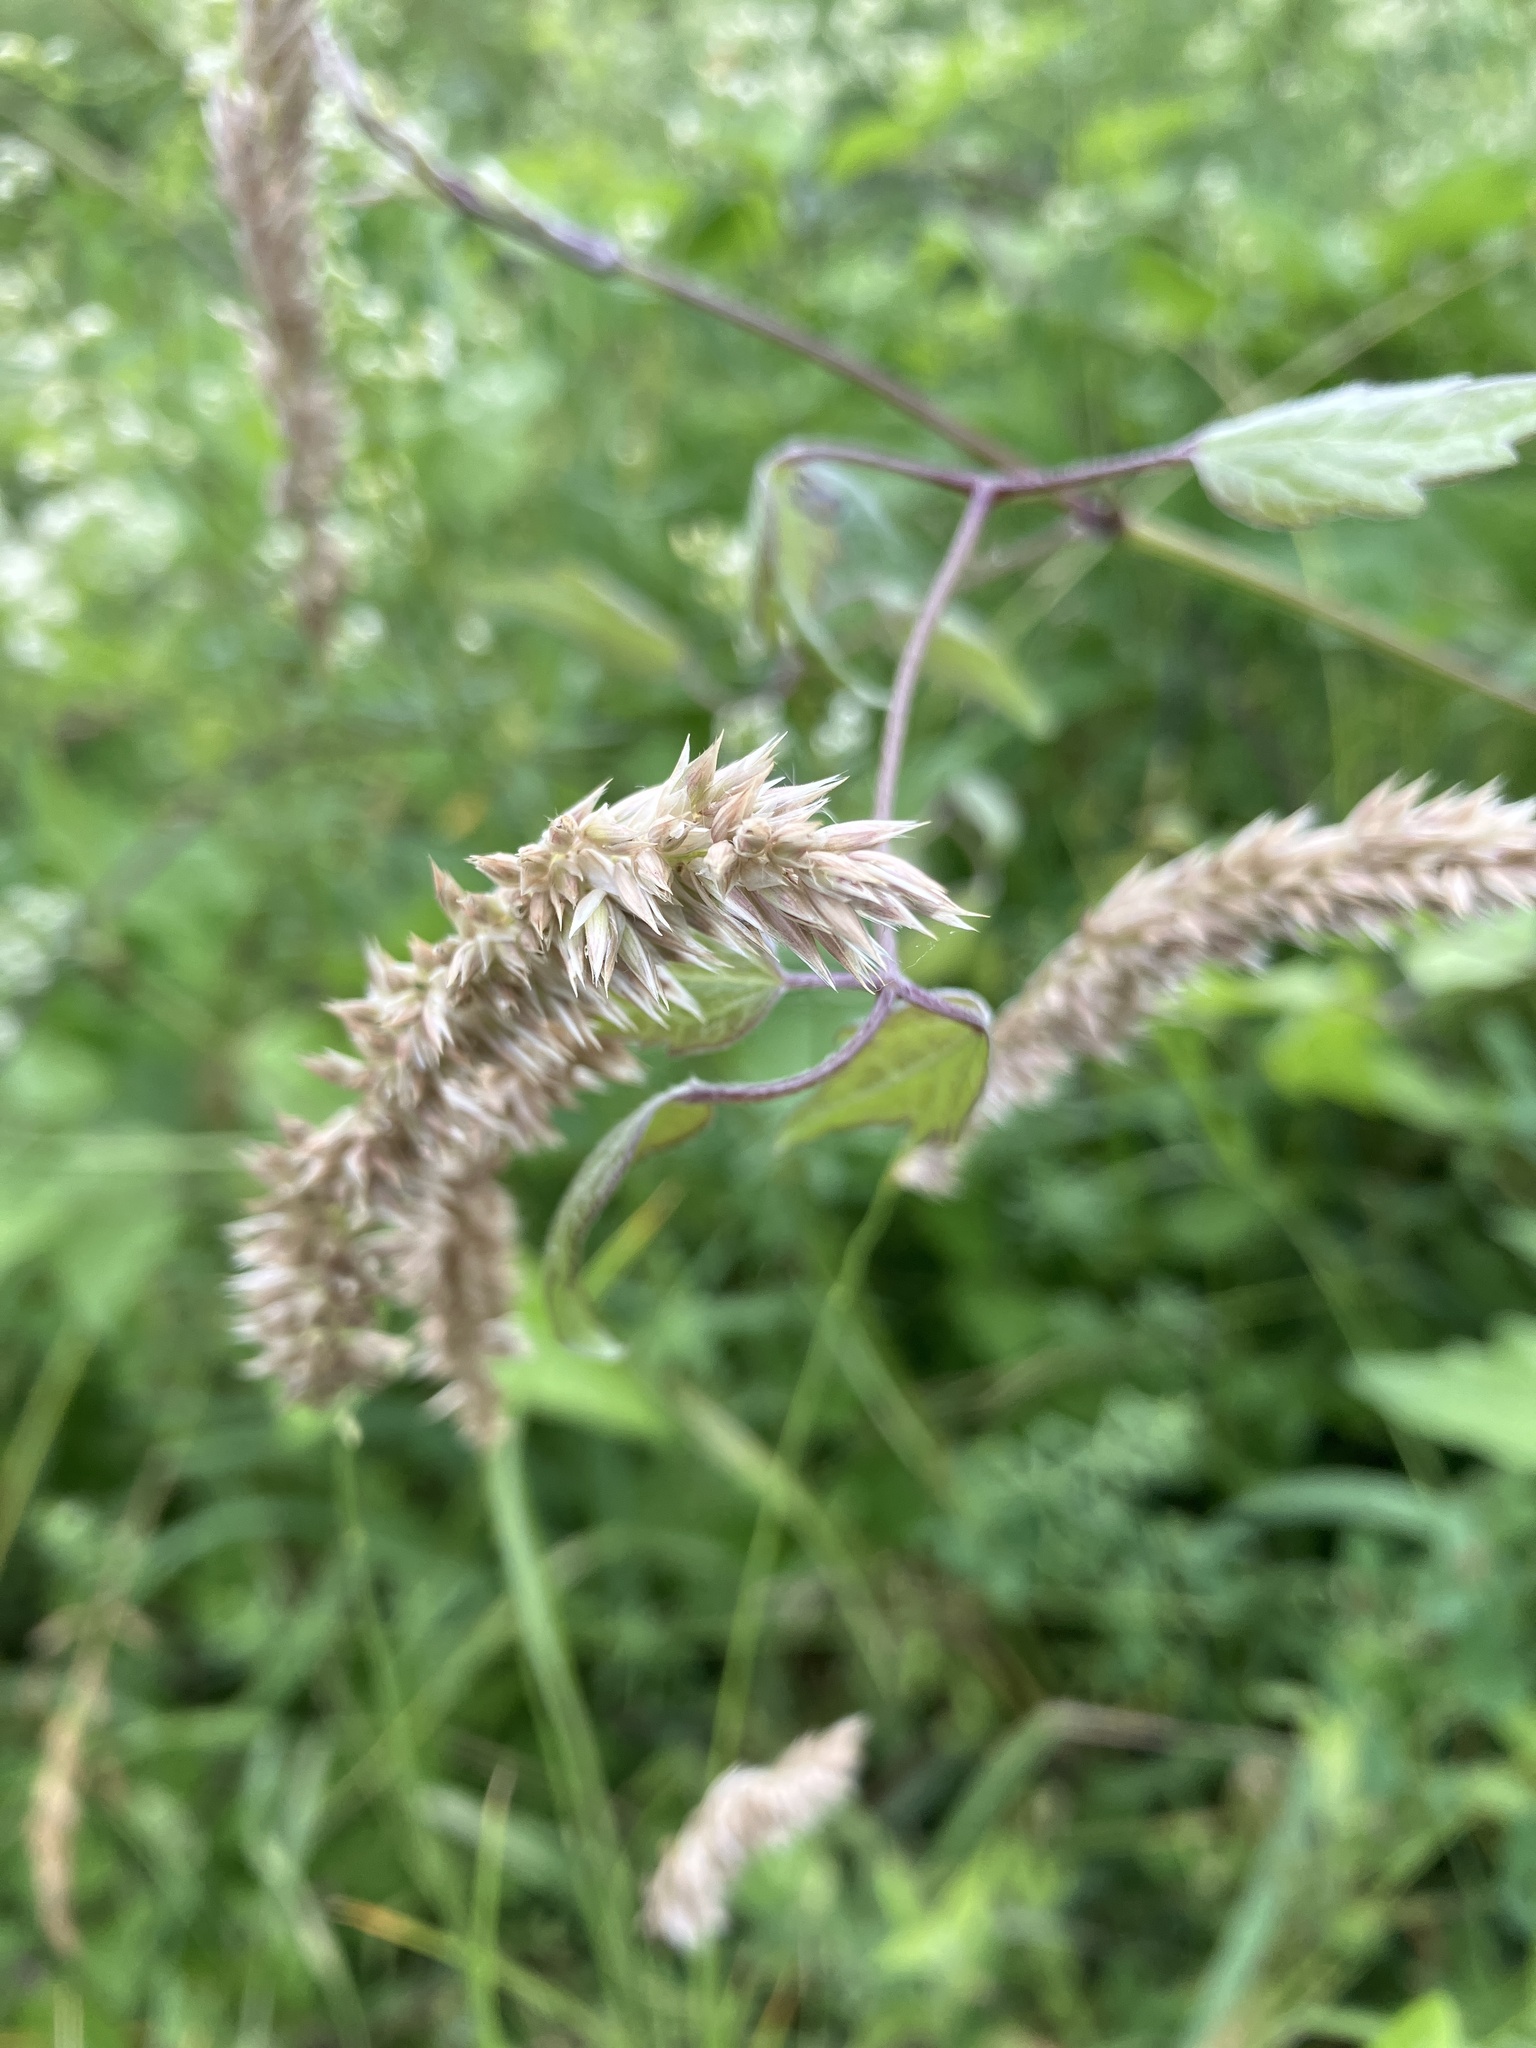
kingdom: Plantae
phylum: Tracheophyta
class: Liliopsida
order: Poales
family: Poaceae
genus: Melica
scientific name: Melica transsilvanica
